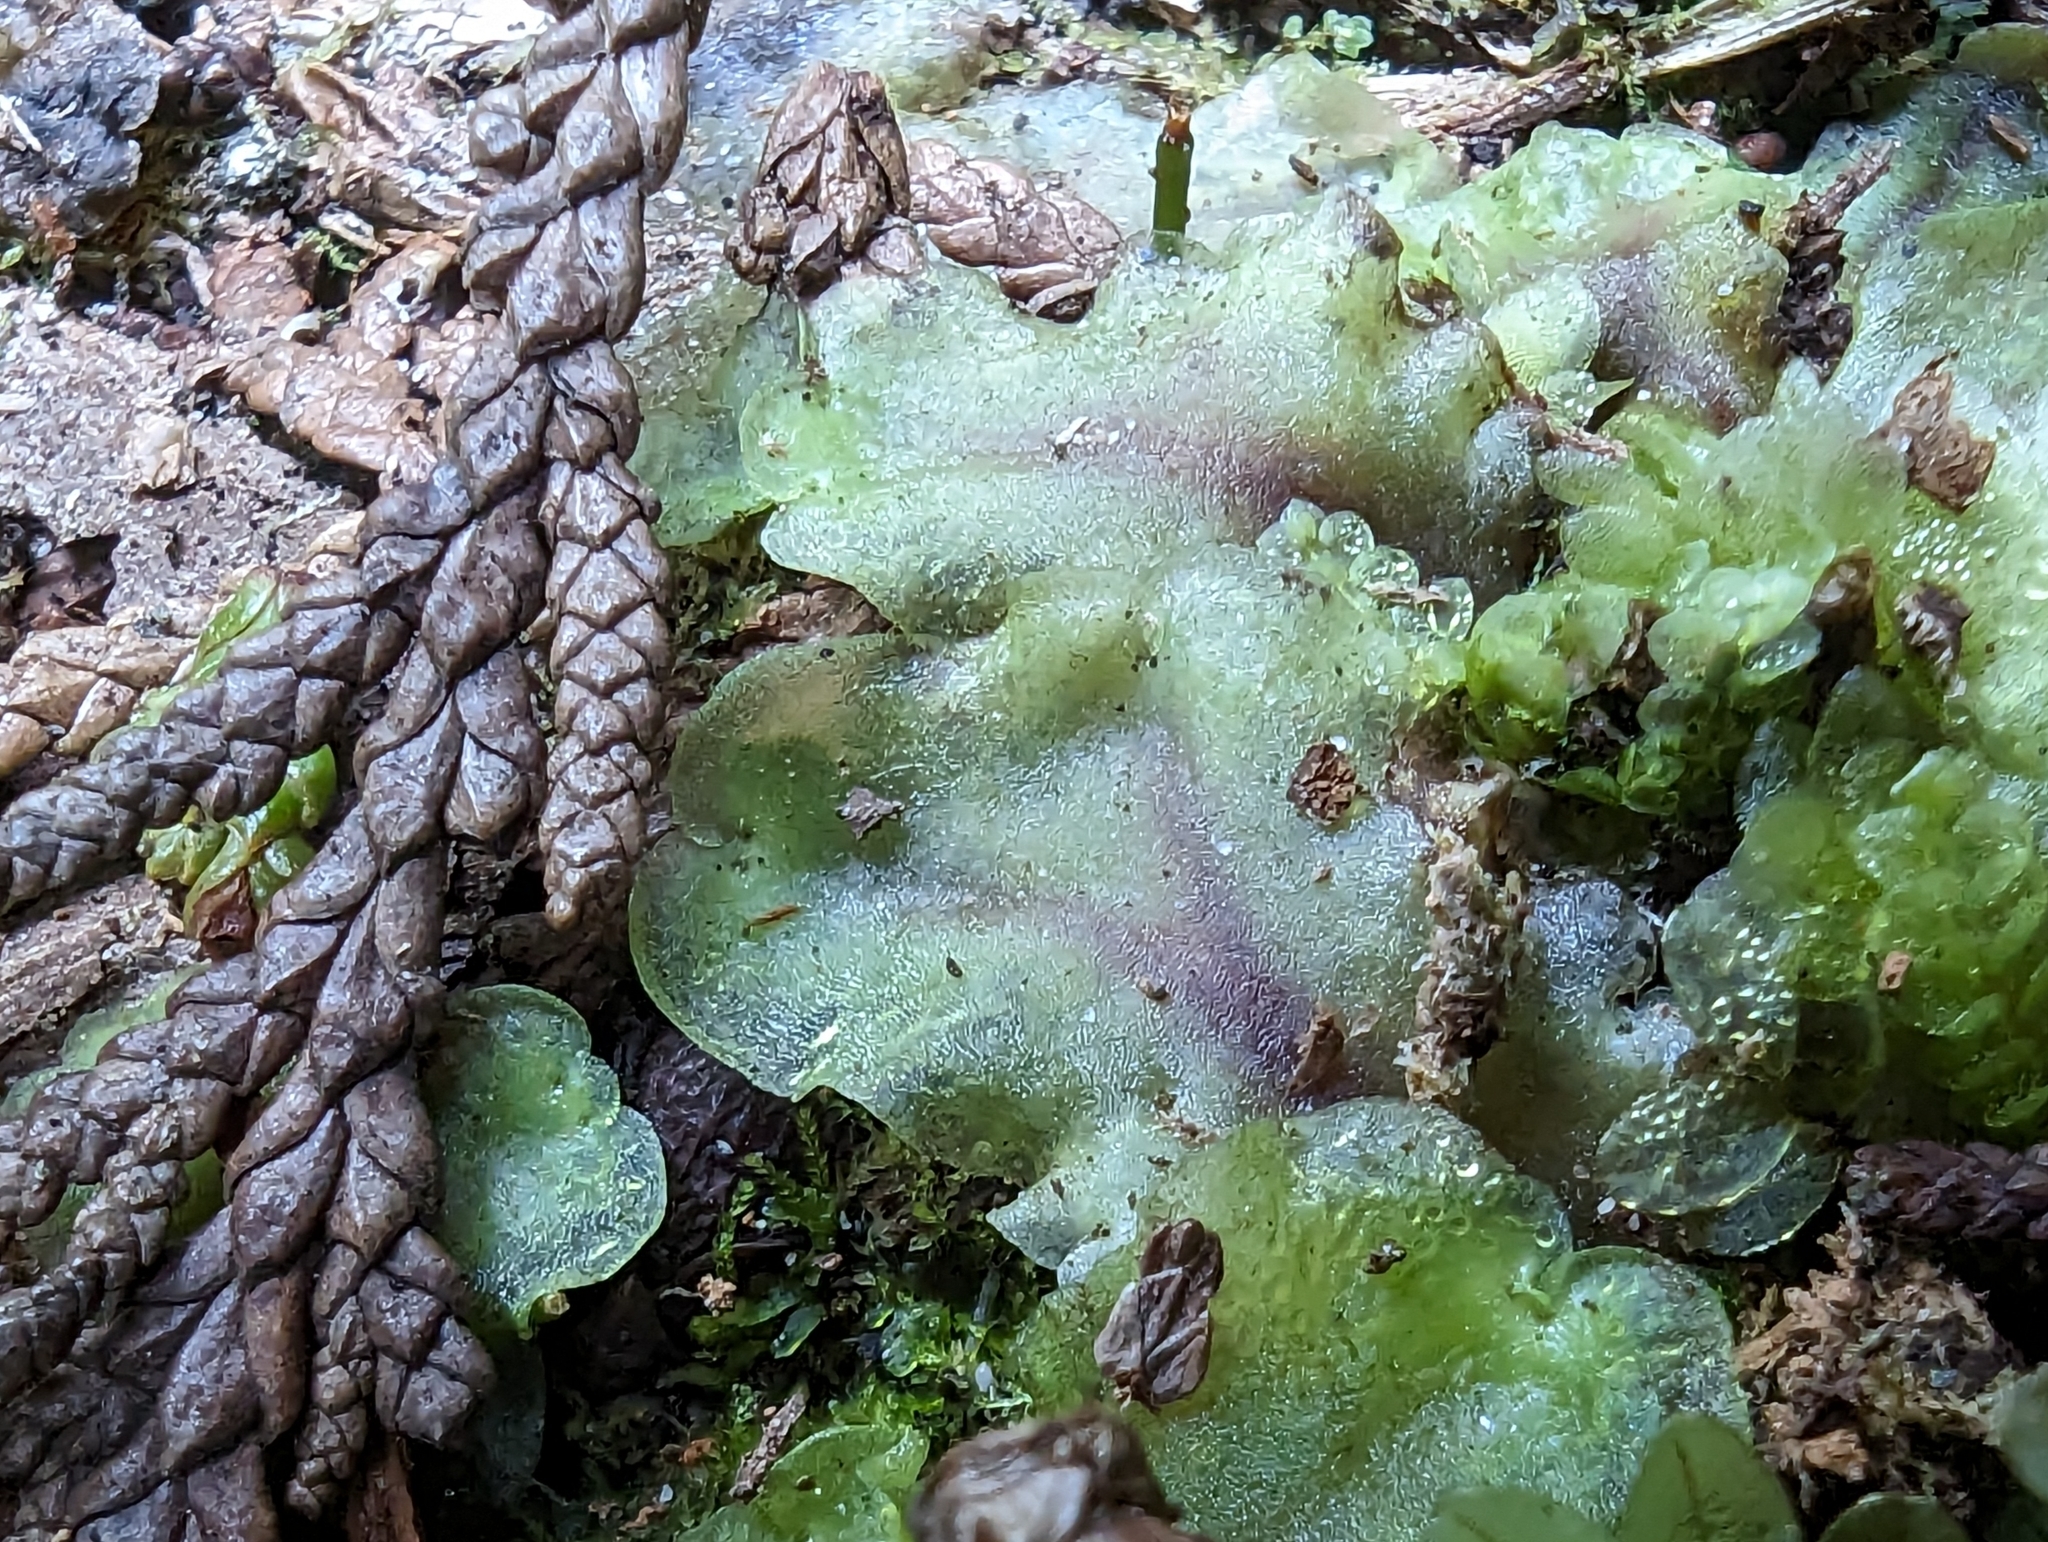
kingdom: Plantae
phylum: Marchantiophyta
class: Jungermanniopsida
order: Pelliales
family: Pelliaceae
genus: Pellia
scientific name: Pellia neesiana
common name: Nees  pellia
